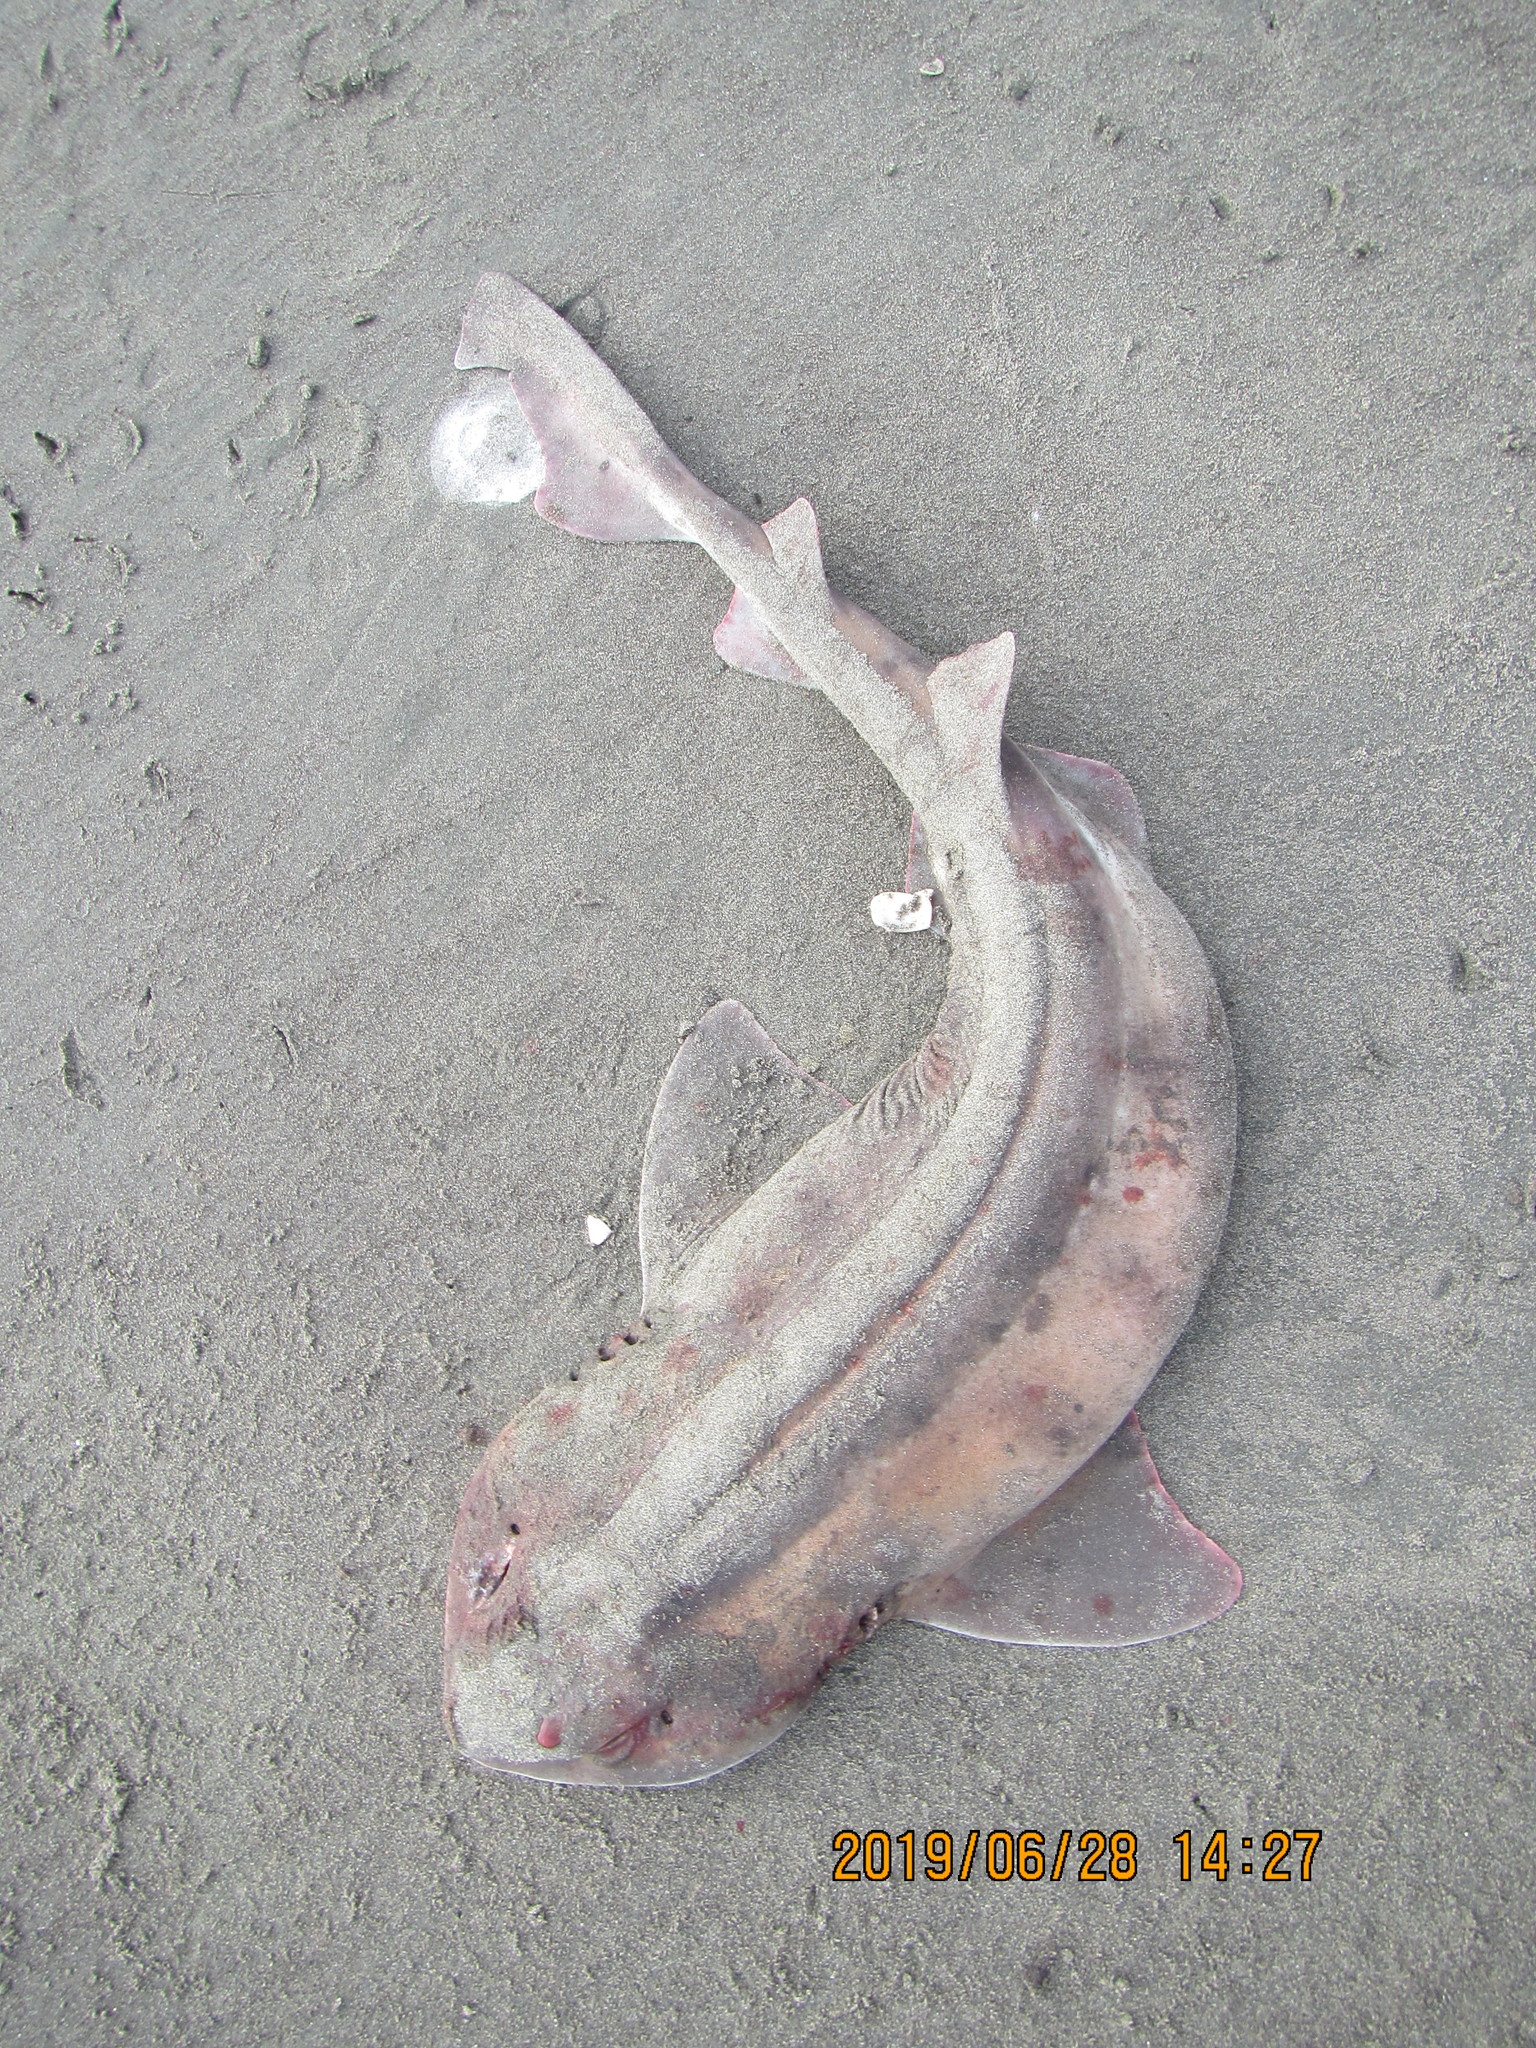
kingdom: Animalia
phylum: Chordata
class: Elasmobranchii
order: Carcharhiniformes
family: Scyliorhinidae
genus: Cephaloscyllium
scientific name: Cephaloscyllium isabellum
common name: Carpet shark
